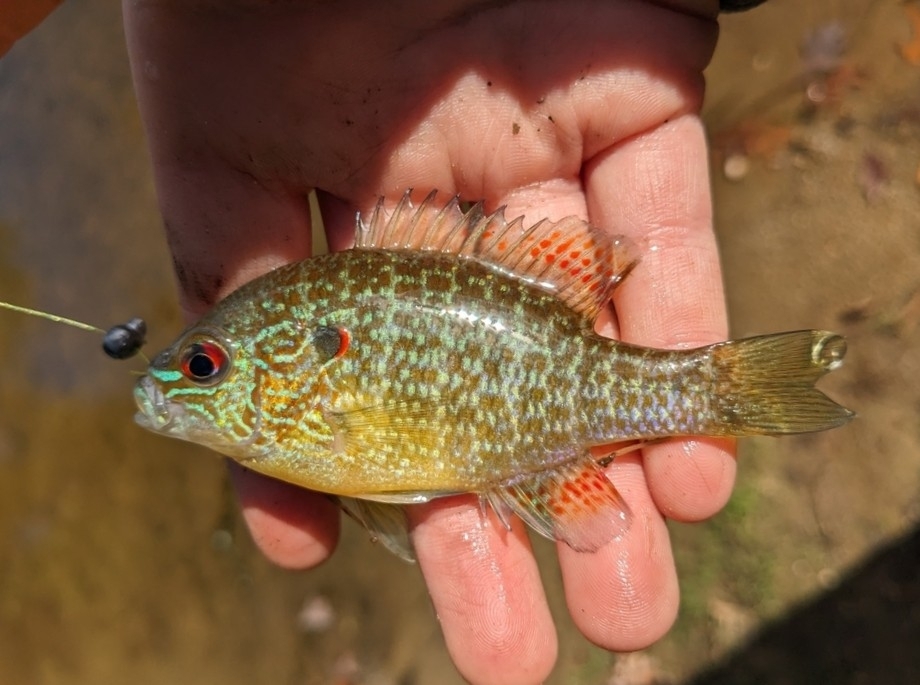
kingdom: Animalia
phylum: Chordata
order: Perciformes
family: Centrarchidae
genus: Lepomis
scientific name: Lepomis peltastes
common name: Northern sunfish
